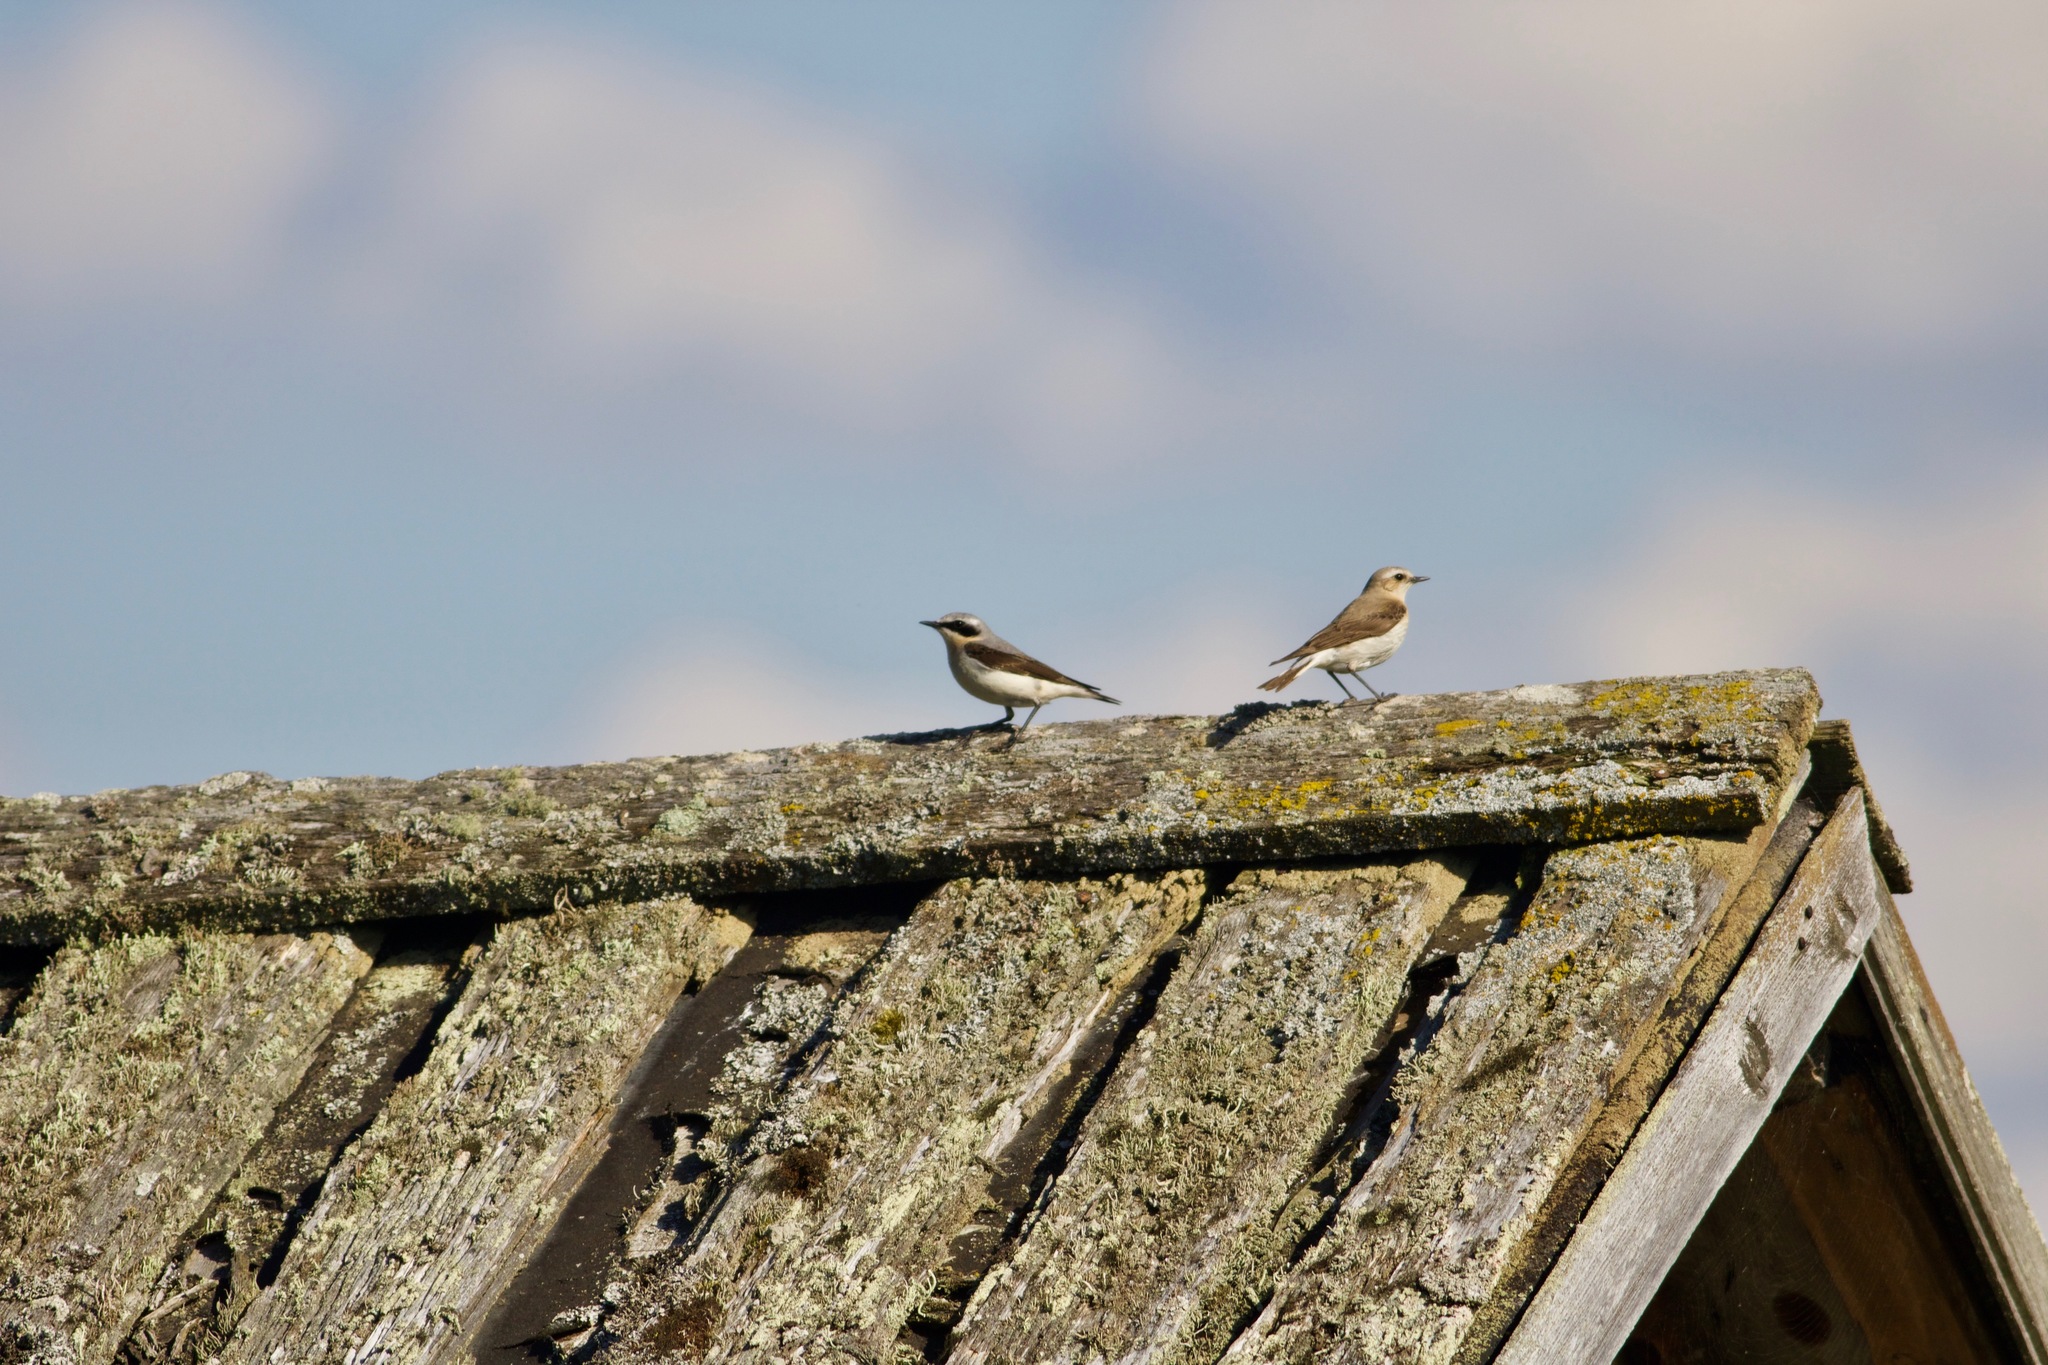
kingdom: Animalia
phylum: Chordata
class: Aves
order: Passeriformes
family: Muscicapidae
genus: Oenanthe
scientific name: Oenanthe oenanthe
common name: Northern wheatear
